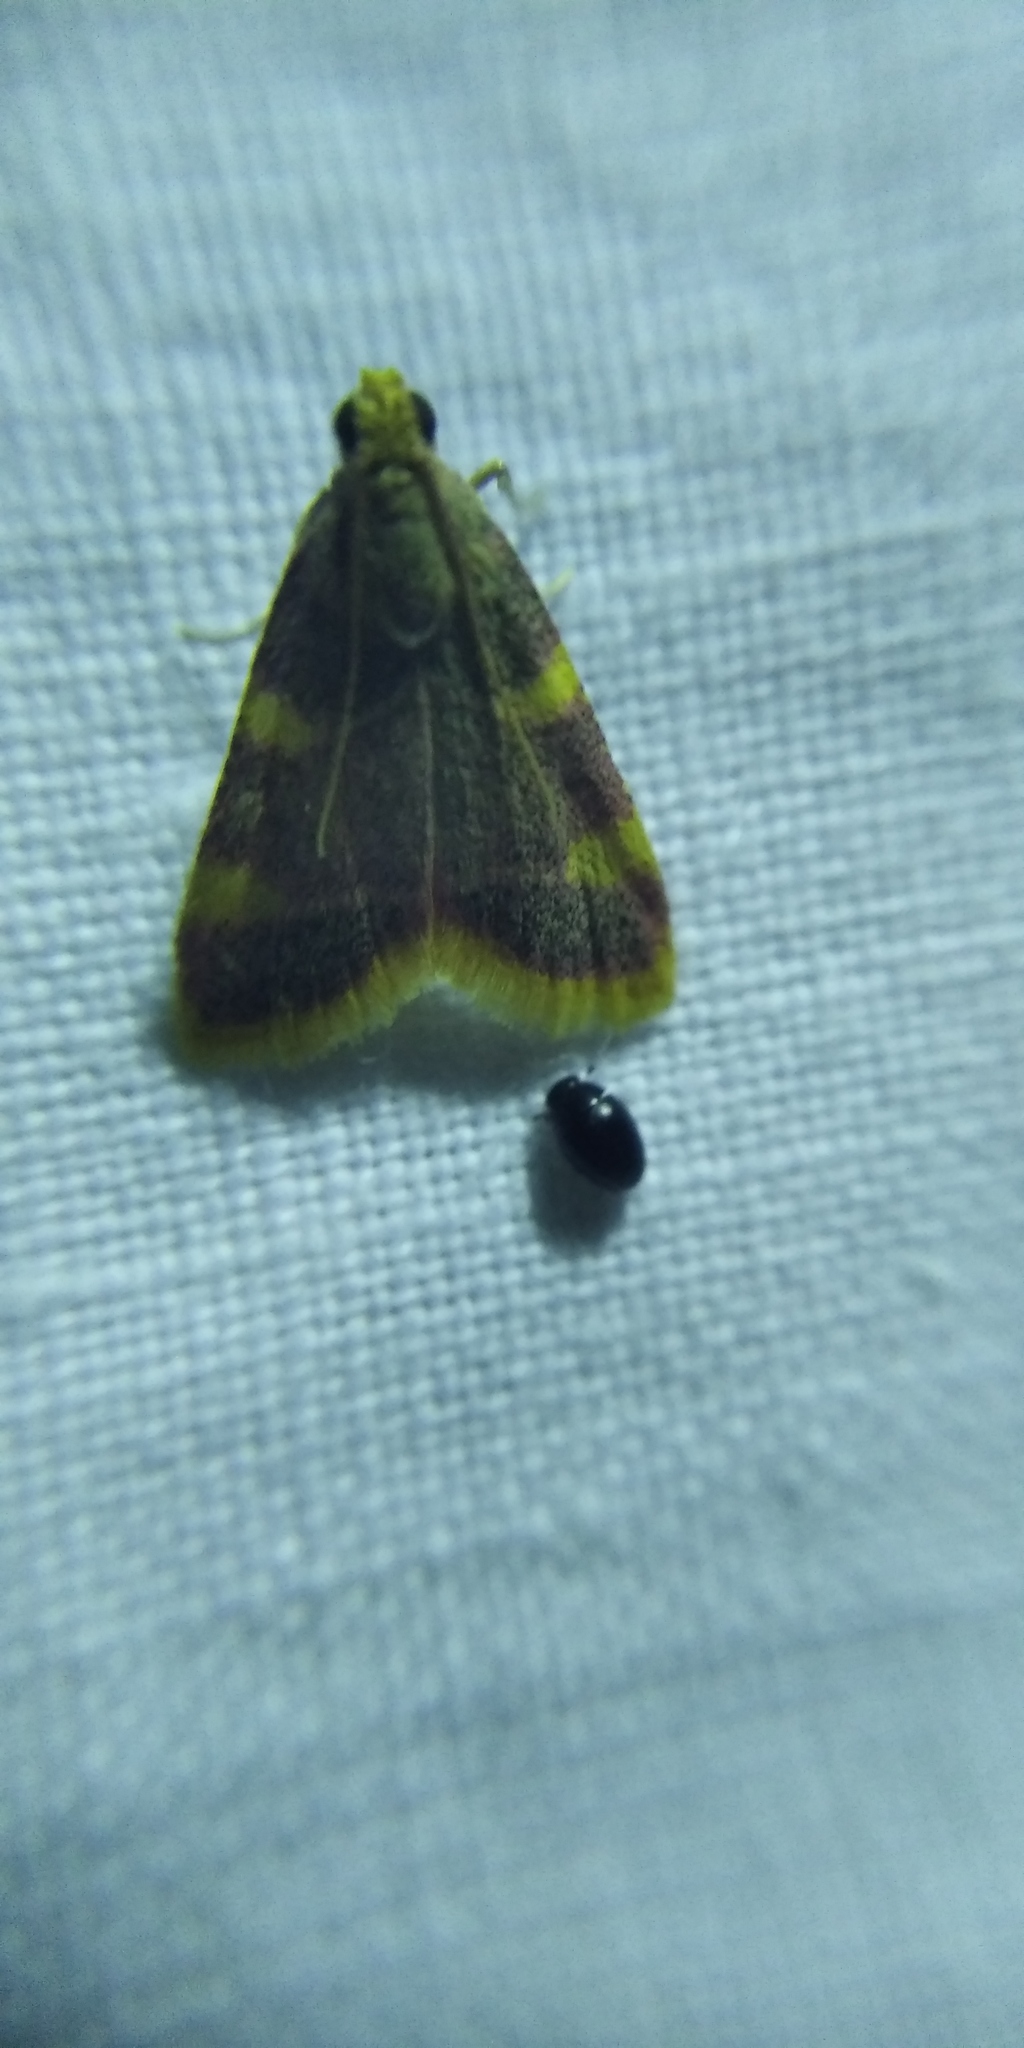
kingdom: Animalia
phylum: Arthropoda
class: Insecta
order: Lepidoptera
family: Pyralidae
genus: Hypsopygia
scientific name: Hypsopygia costalis
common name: Gold triangle
